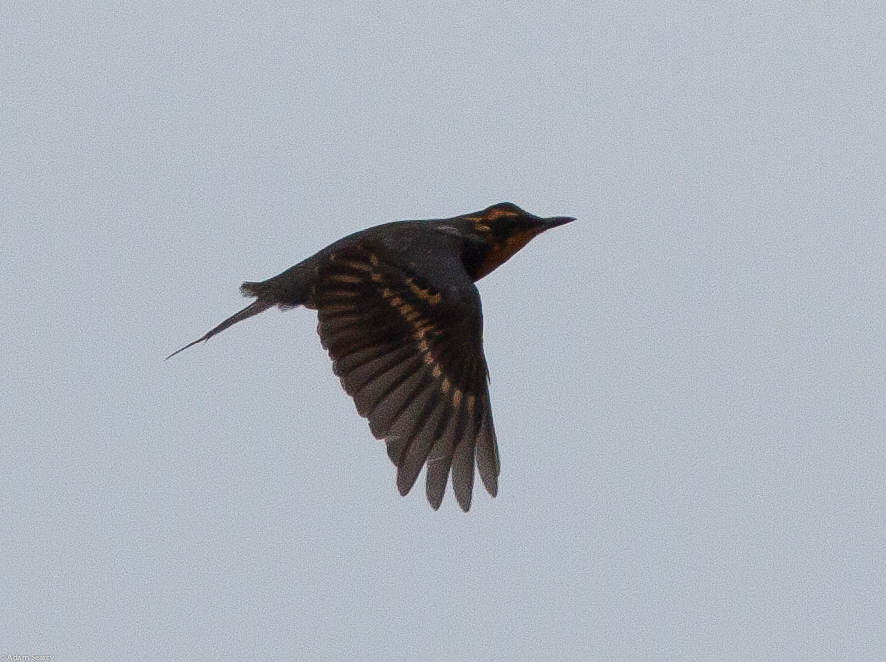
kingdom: Animalia
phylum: Chordata
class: Aves
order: Passeriformes
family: Turdidae
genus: Ixoreus
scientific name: Ixoreus naevius
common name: Varied thrush
